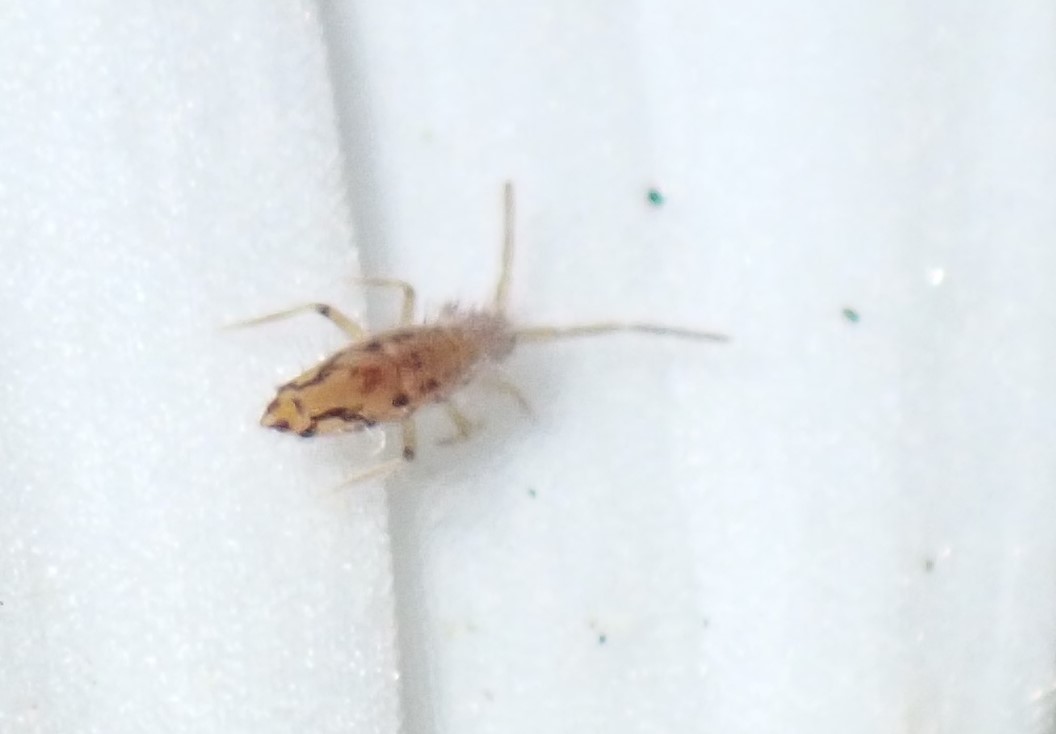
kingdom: Animalia
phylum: Arthropoda
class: Collembola
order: Entomobryomorpha
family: Entomobryidae
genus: Entomobrya
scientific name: Entomobrya katzi
